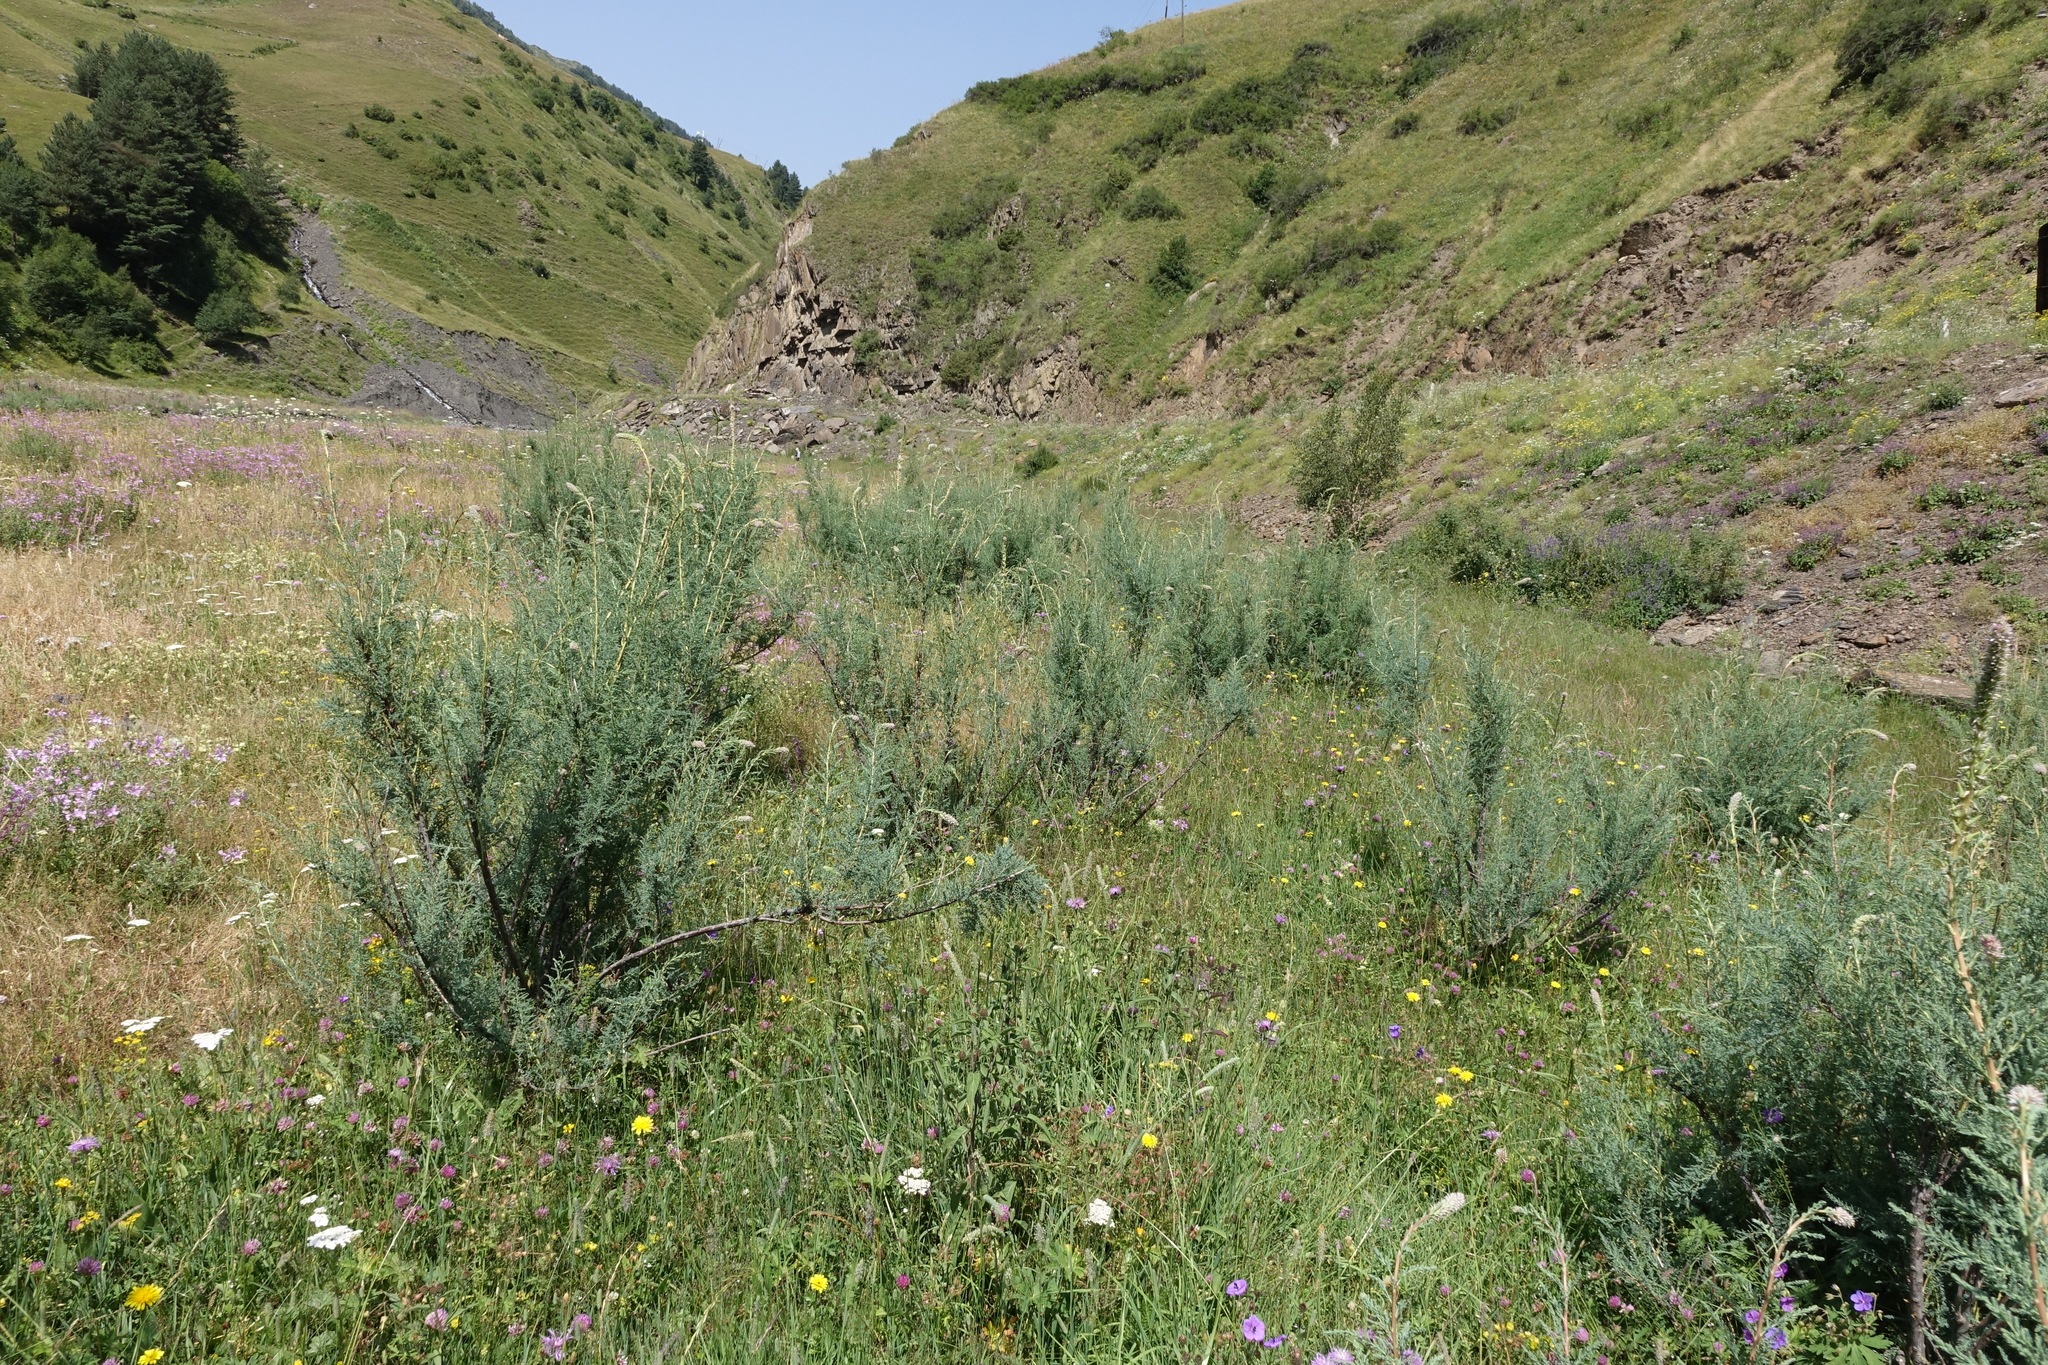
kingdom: Plantae
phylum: Tracheophyta
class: Magnoliopsida
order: Caryophyllales
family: Tamaricaceae
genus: Myricaria
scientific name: Myricaria bracteata
